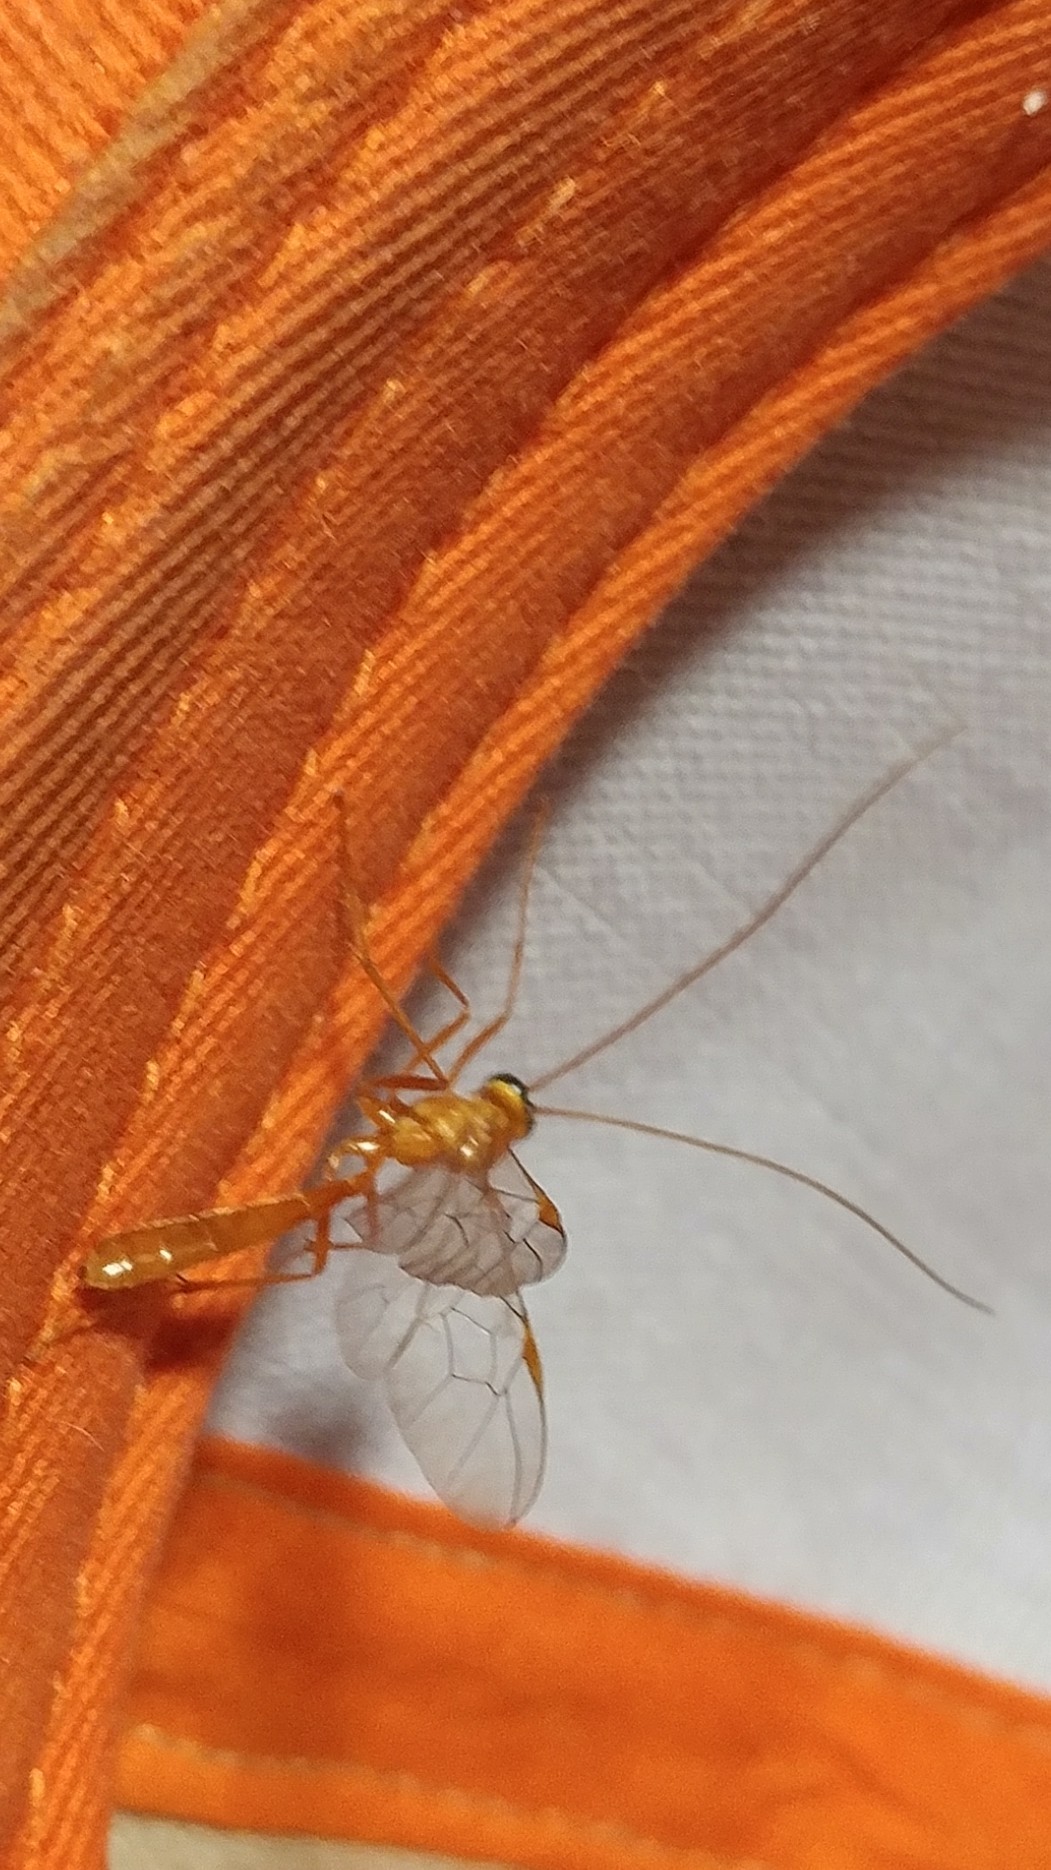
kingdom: Animalia
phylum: Arthropoda
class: Insecta
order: Hymenoptera
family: Ichneumonidae
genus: Ophion
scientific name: Ophion
